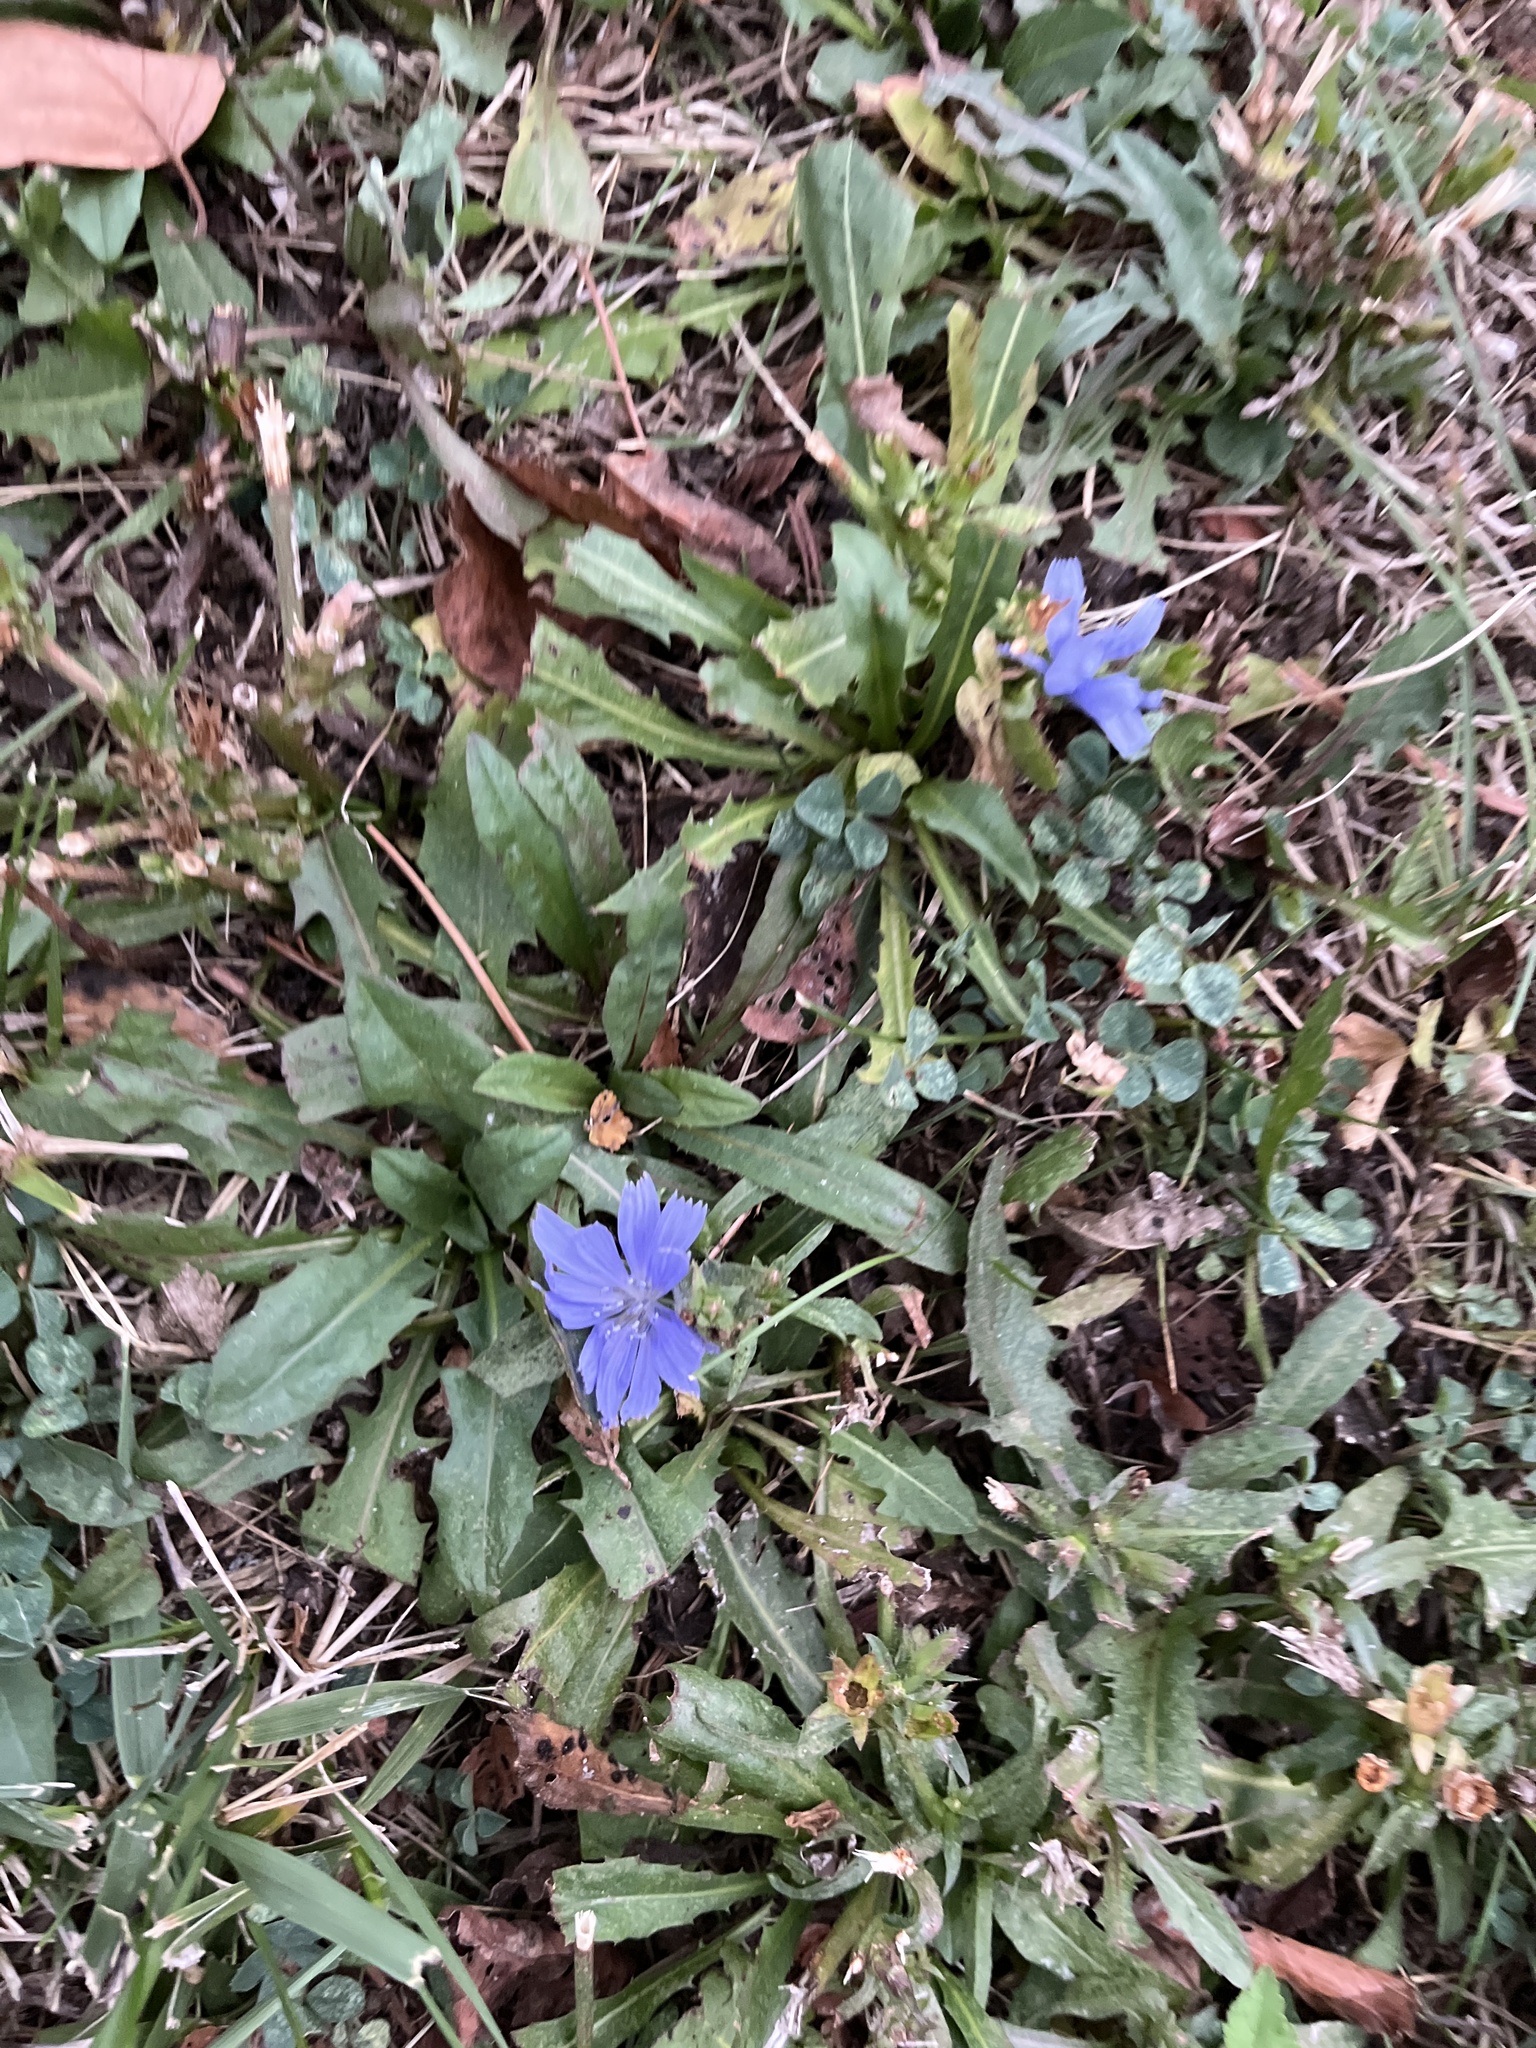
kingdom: Plantae
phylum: Tracheophyta
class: Magnoliopsida
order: Asterales
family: Asteraceae
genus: Cichorium
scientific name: Cichorium intybus
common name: Chicory
